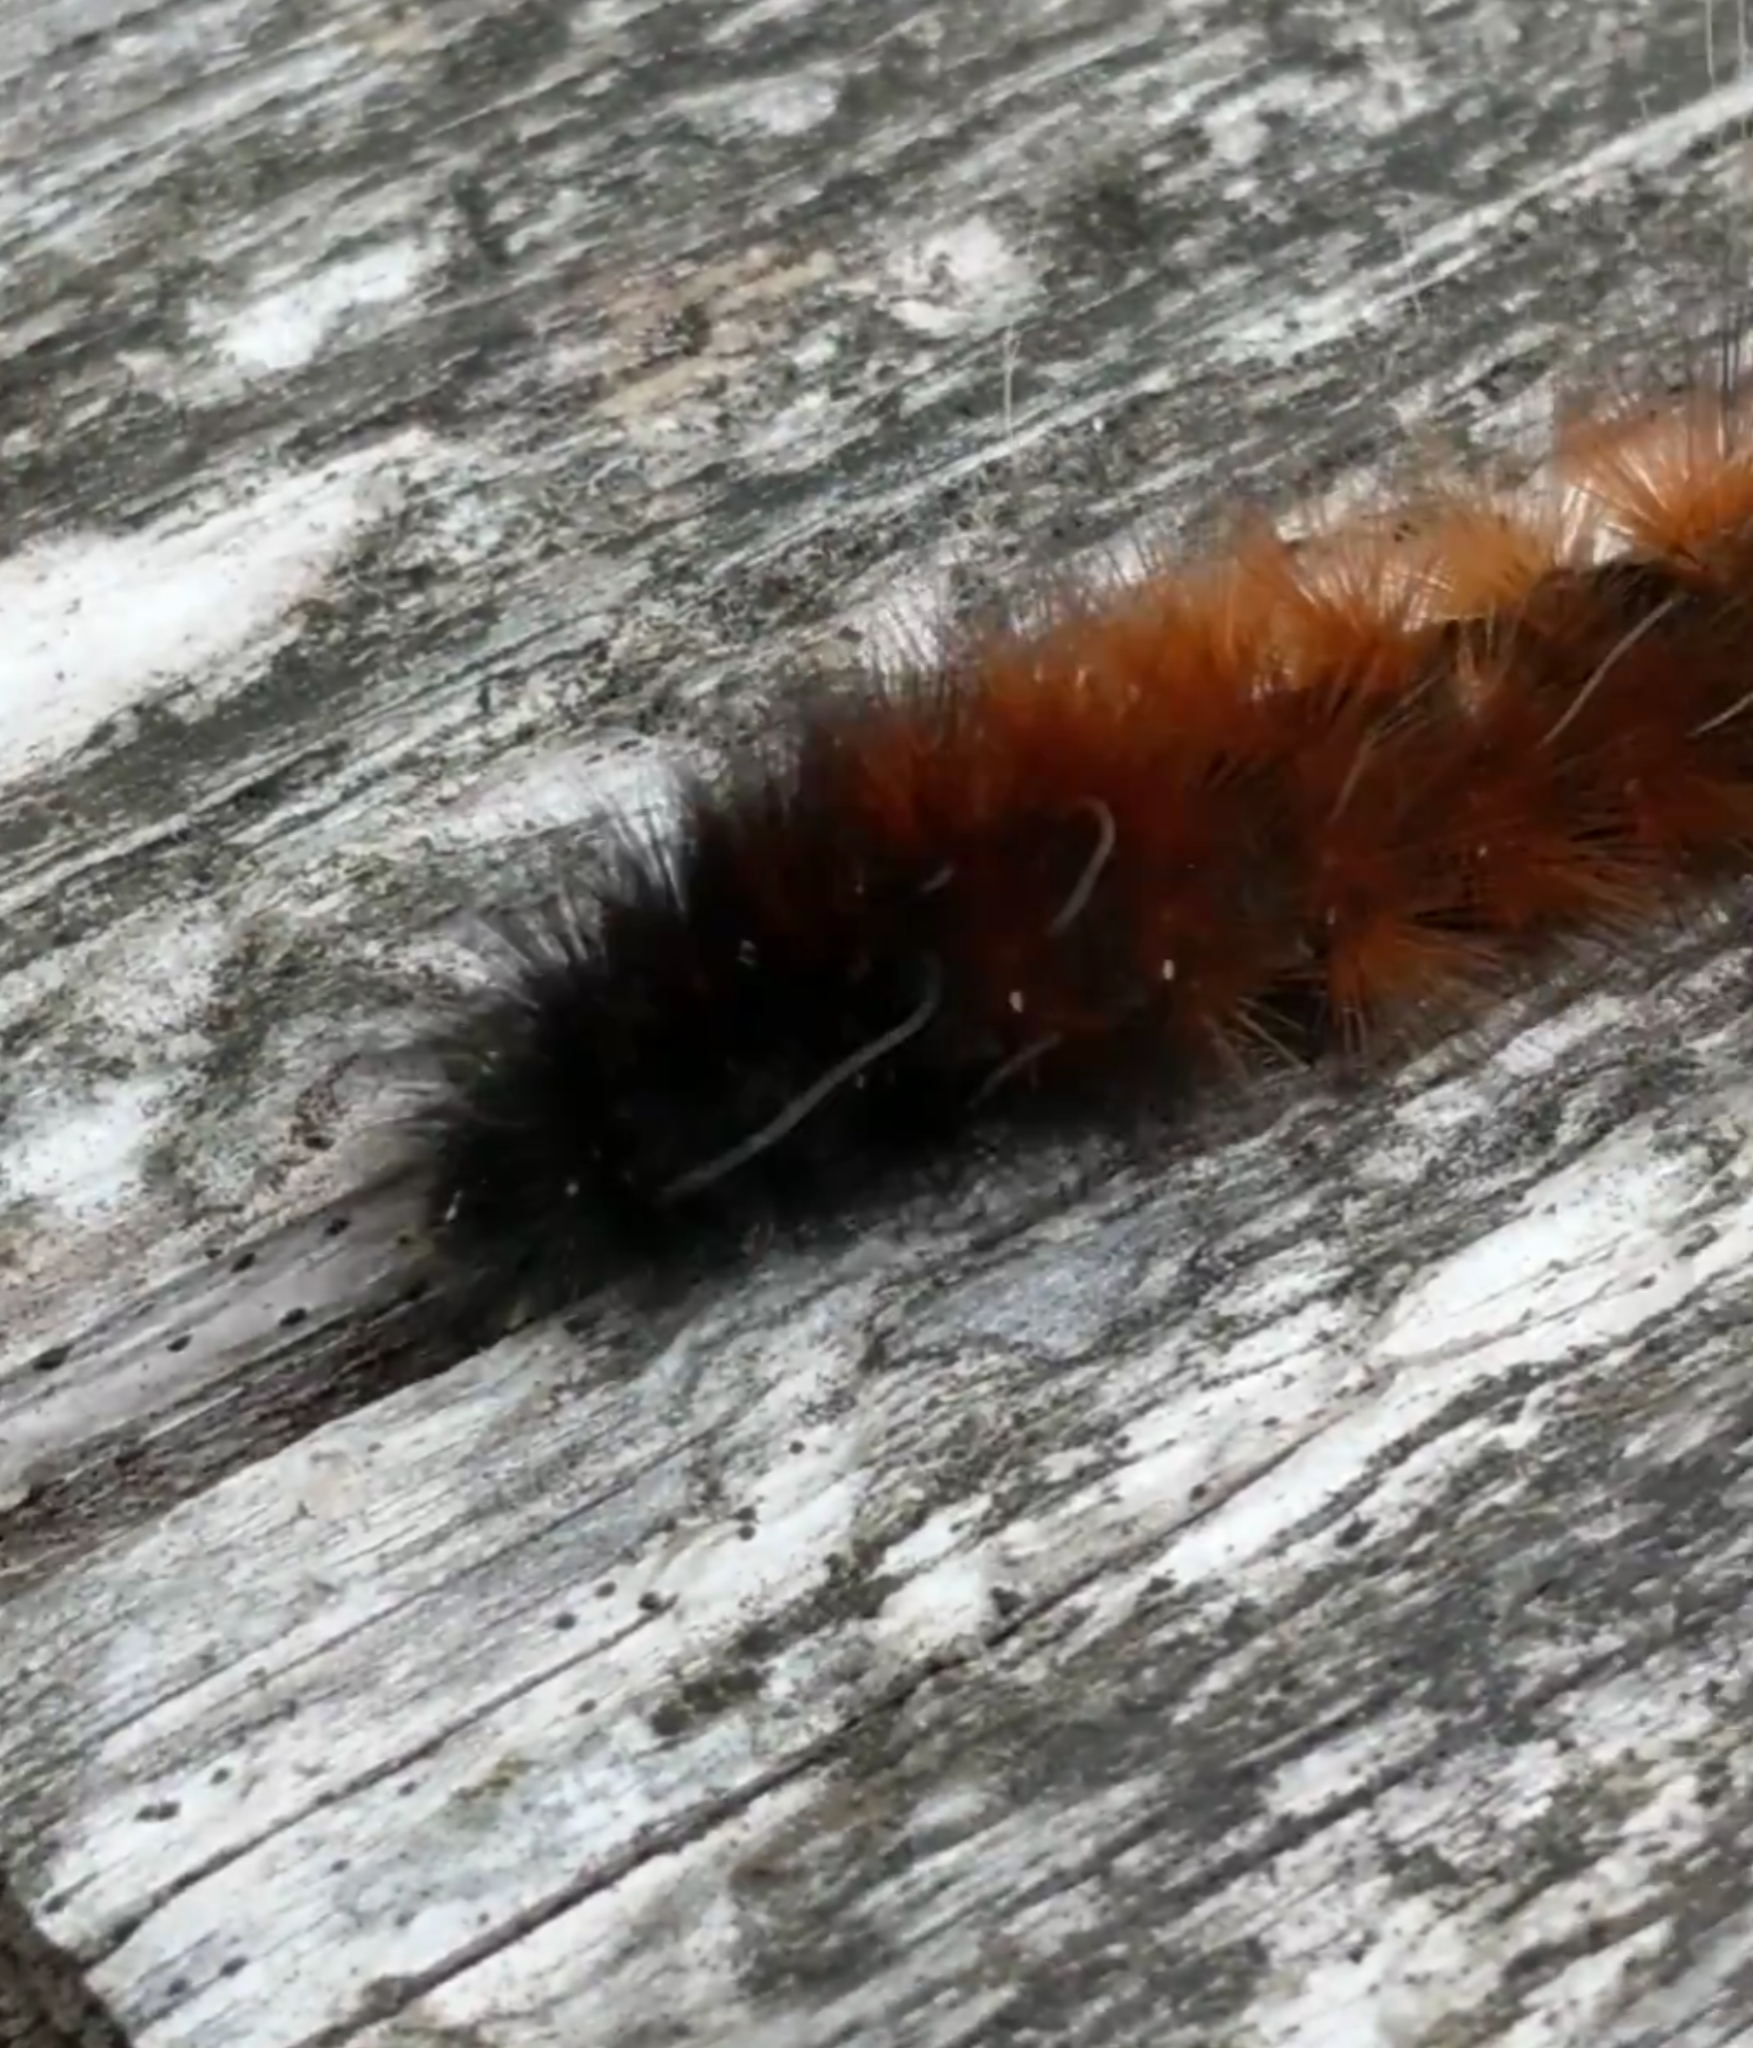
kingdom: Animalia
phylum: Arthropoda
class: Insecta
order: Lepidoptera
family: Erebidae
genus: Pyrrharctia
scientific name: Pyrrharctia isabella
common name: Isabella tiger moth
